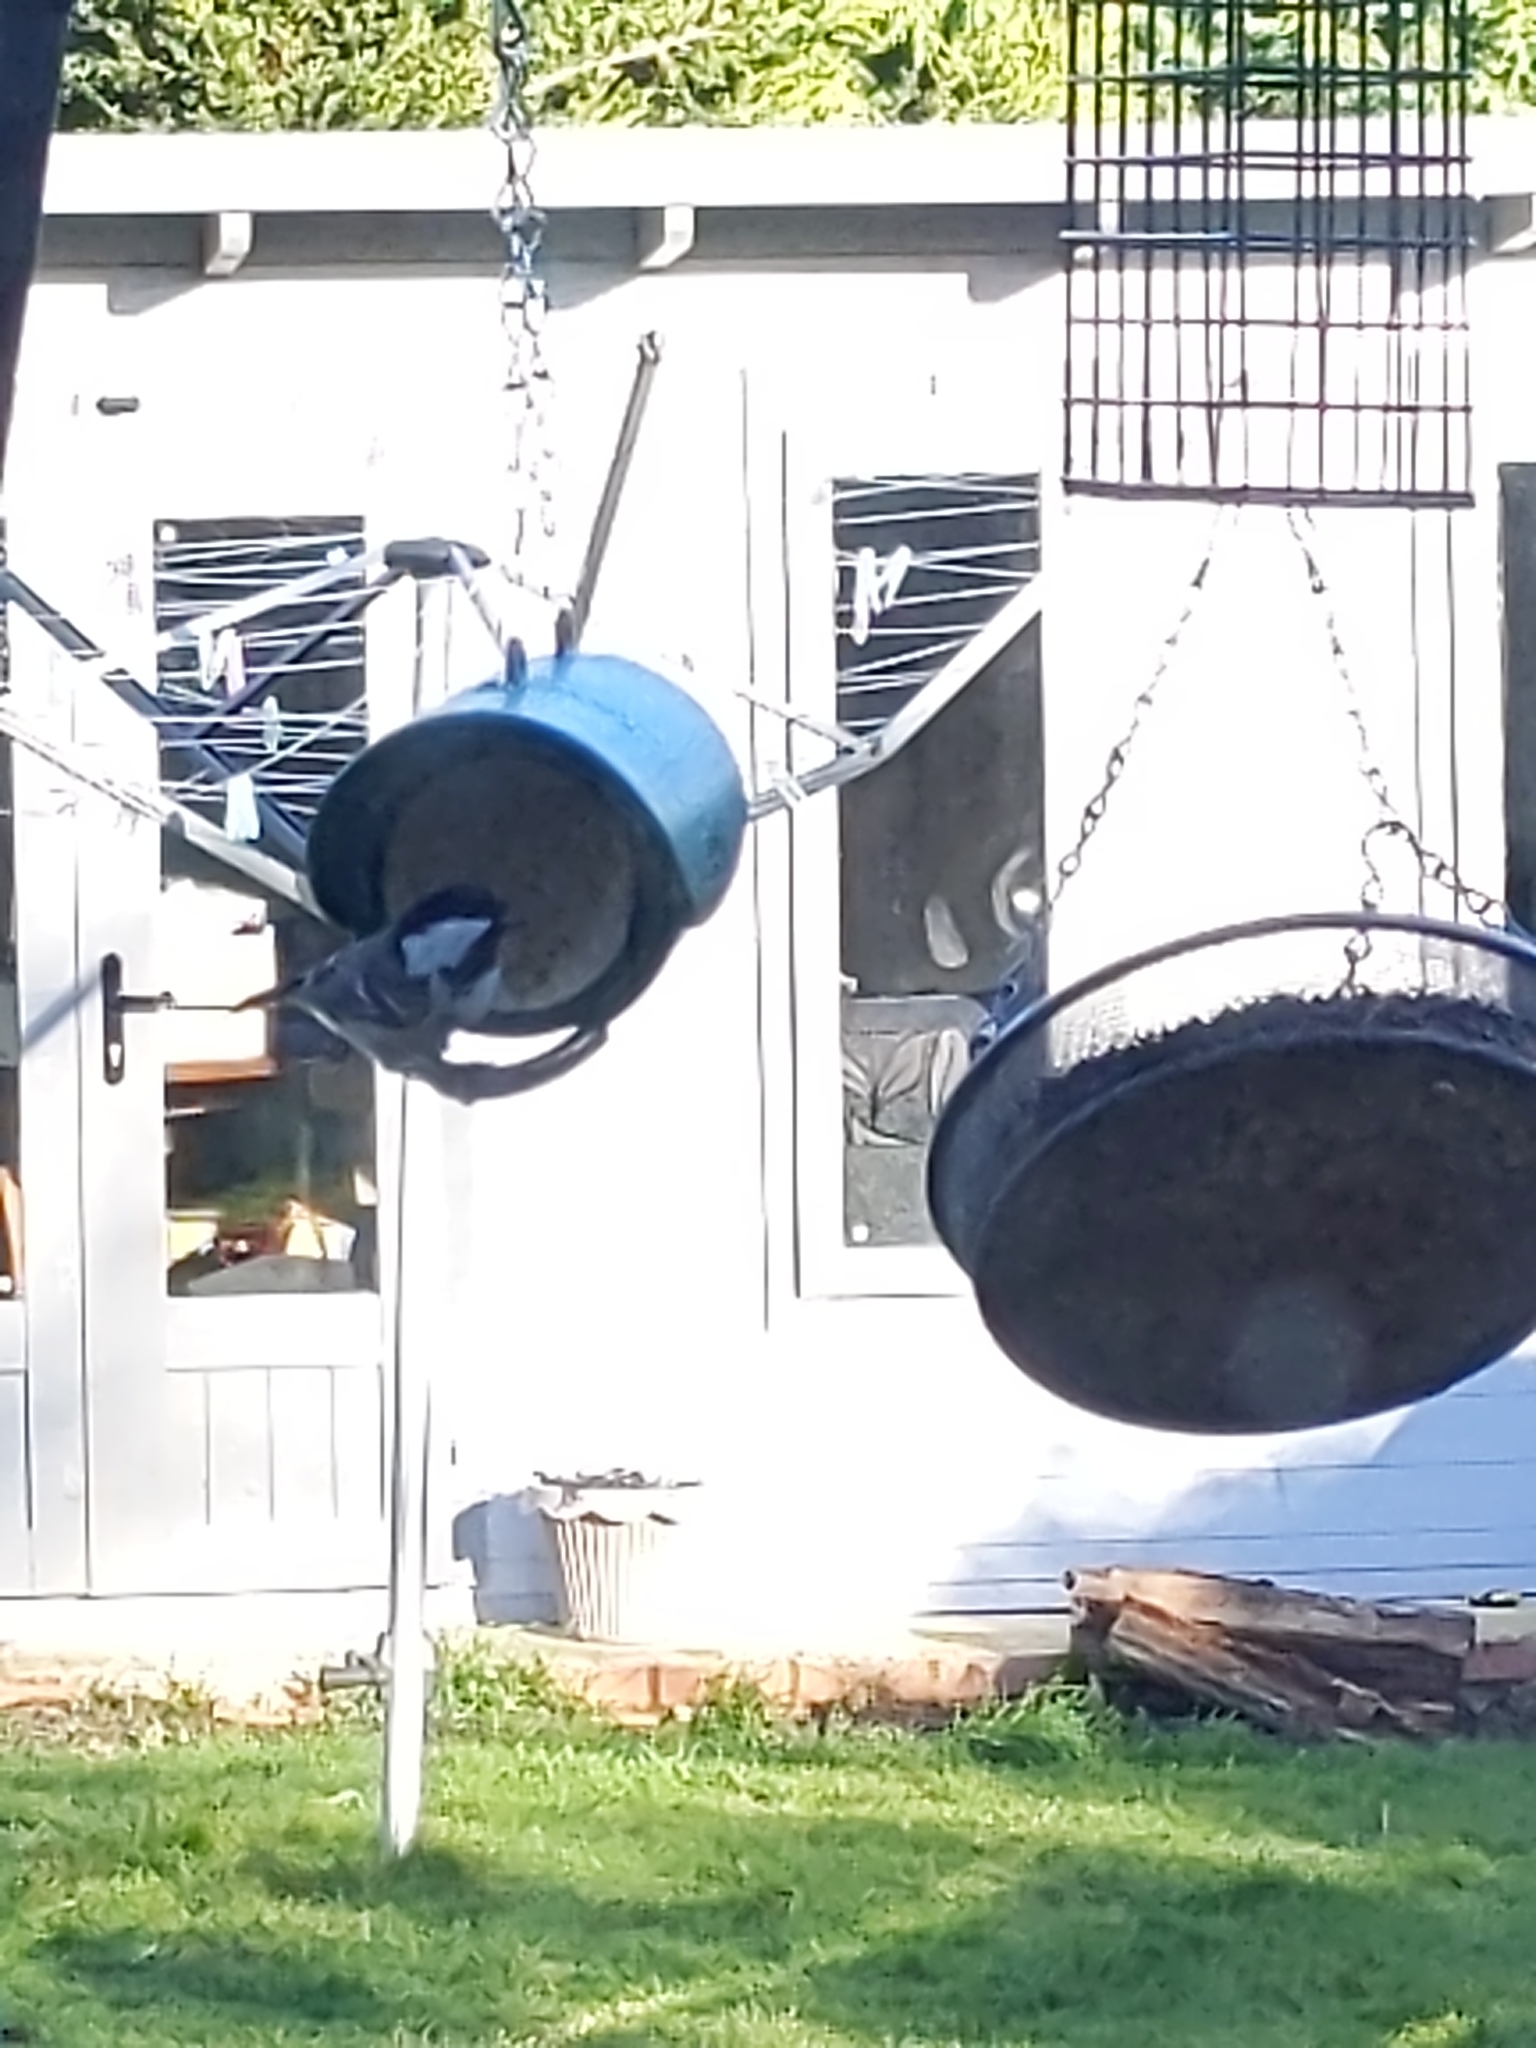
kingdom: Animalia
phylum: Chordata
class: Aves
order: Passeriformes
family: Paridae
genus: Periparus
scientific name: Periparus ater
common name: Coal tit
